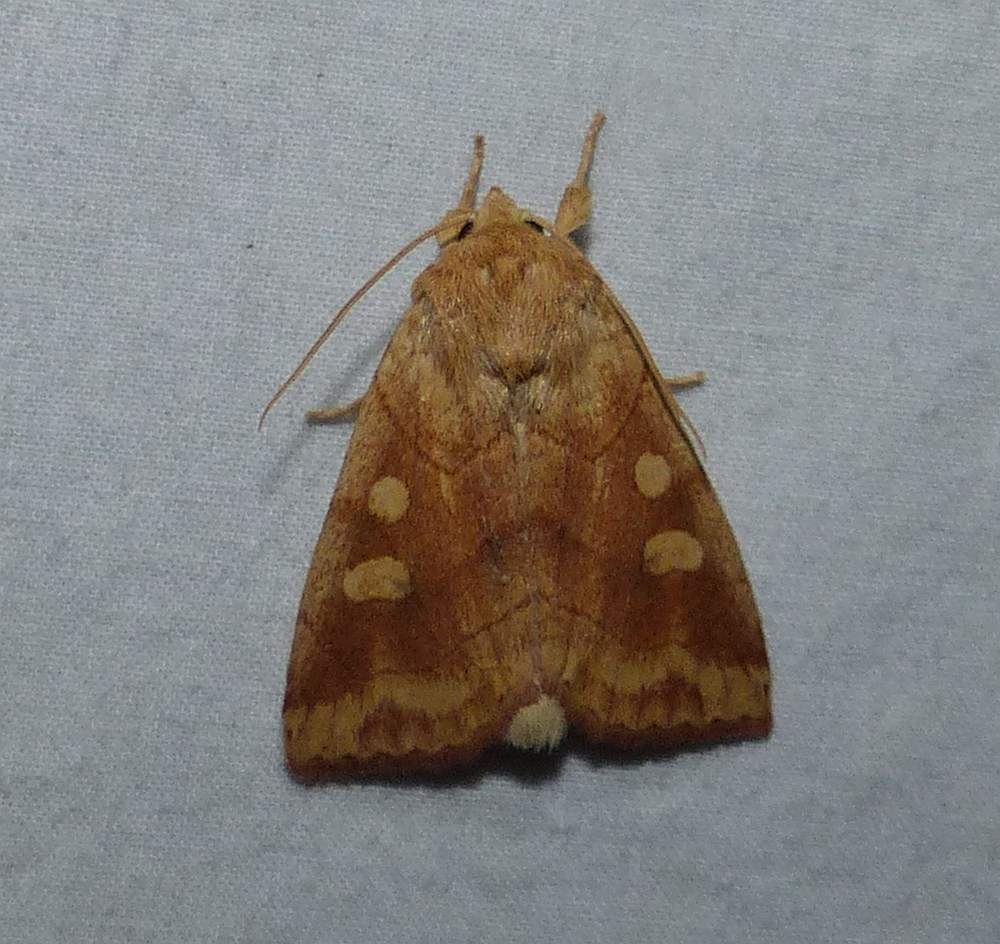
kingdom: Animalia
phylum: Arthropoda
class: Insecta
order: Lepidoptera
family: Noctuidae
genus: Enargia
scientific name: Enargia decolor
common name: Aspen twoleaf tier moth
